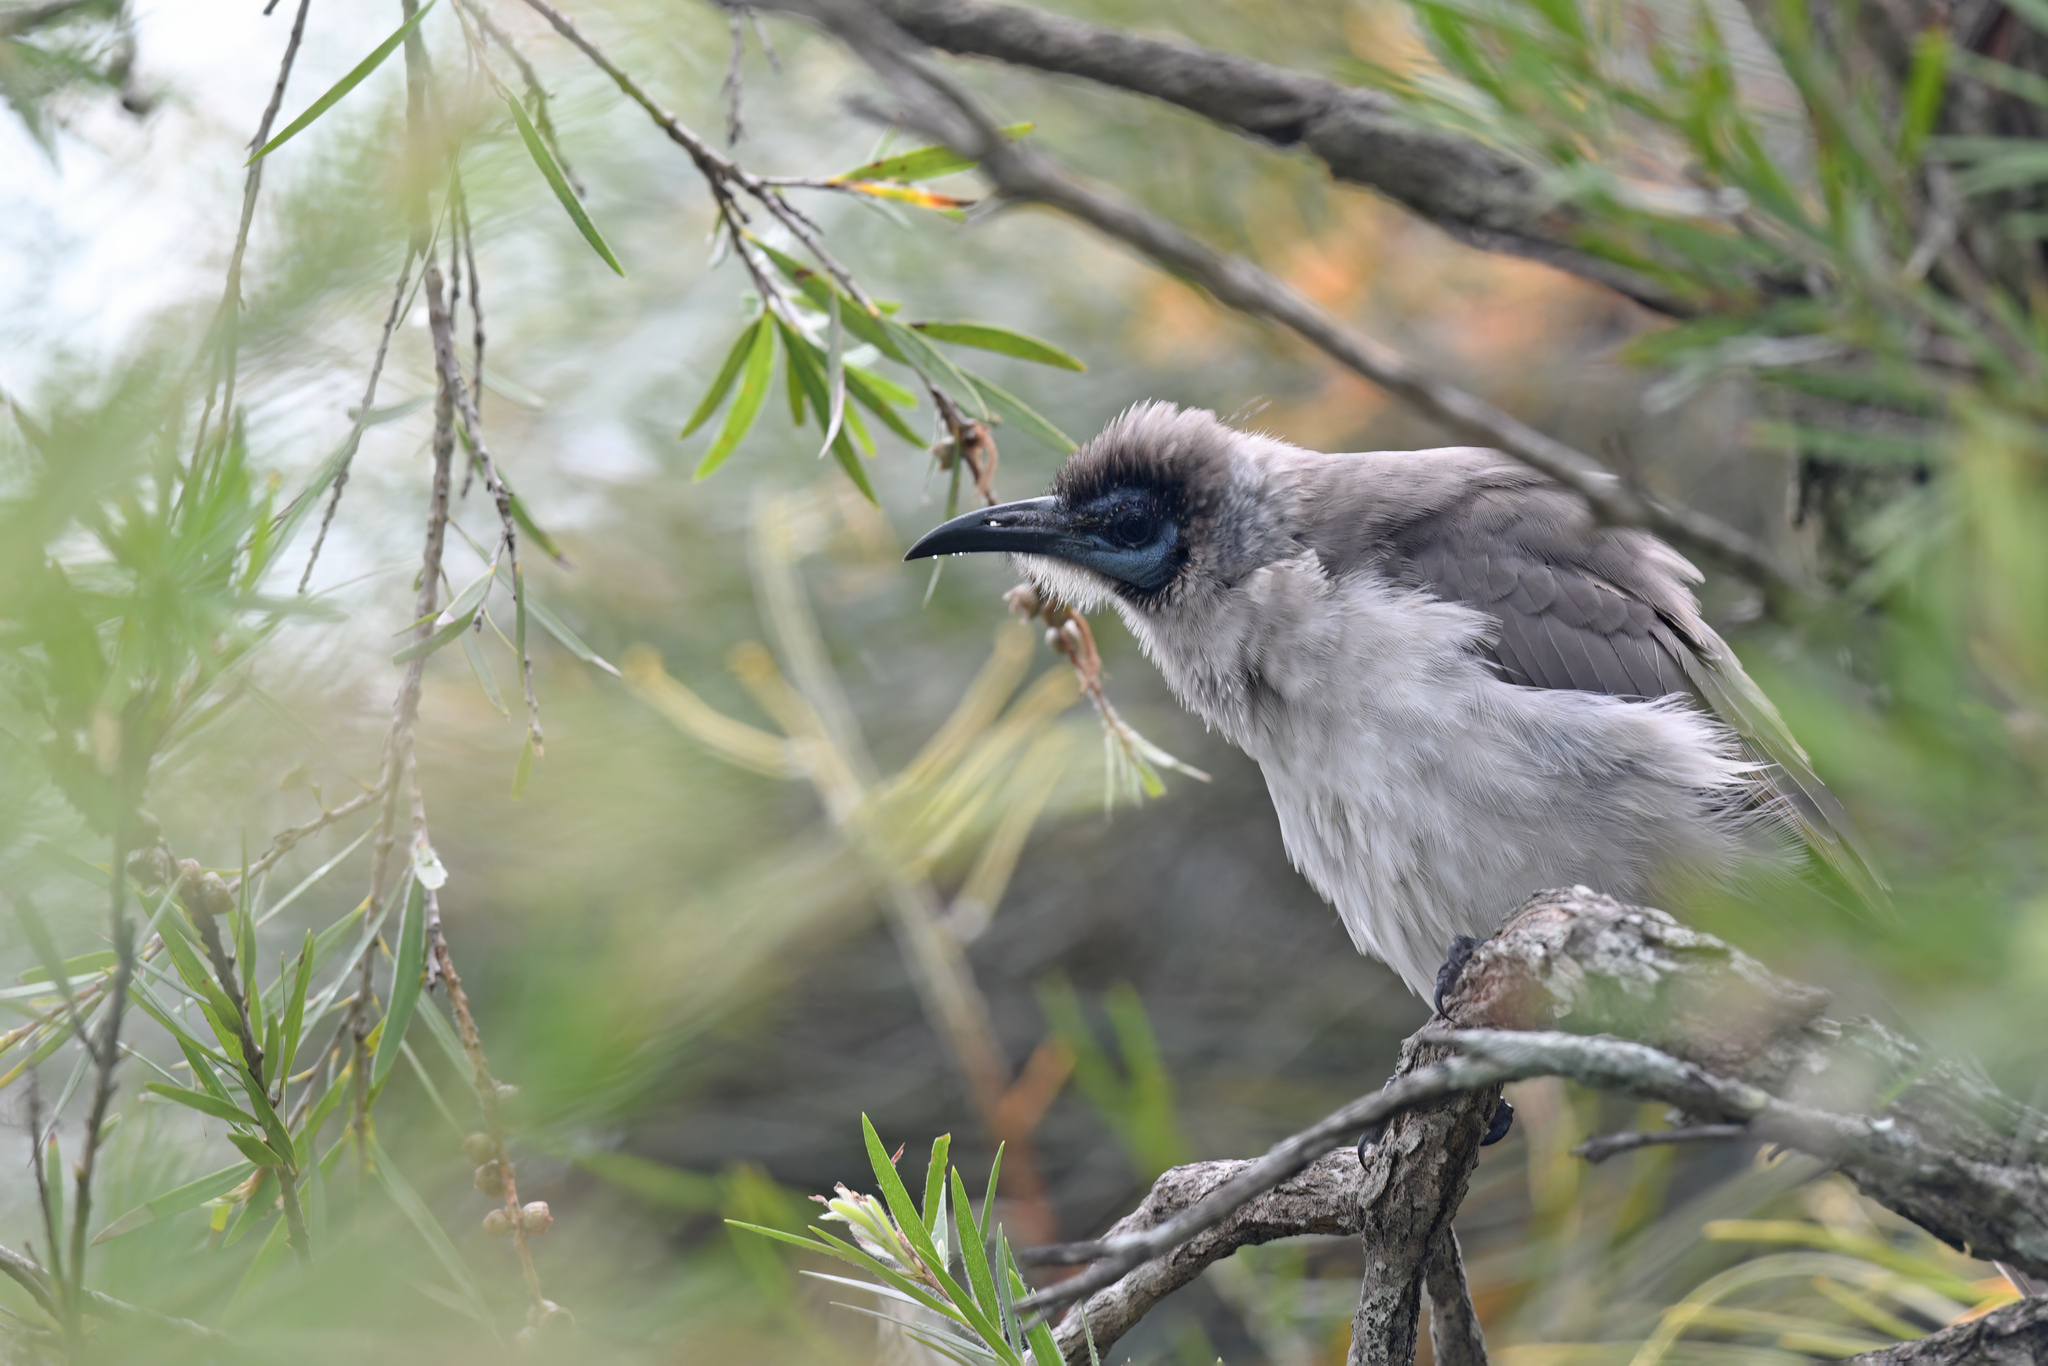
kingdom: Animalia
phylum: Chordata
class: Aves
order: Passeriformes
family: Meliphagidae
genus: Philemon
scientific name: Philemon citreogularis
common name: Little friarbird
